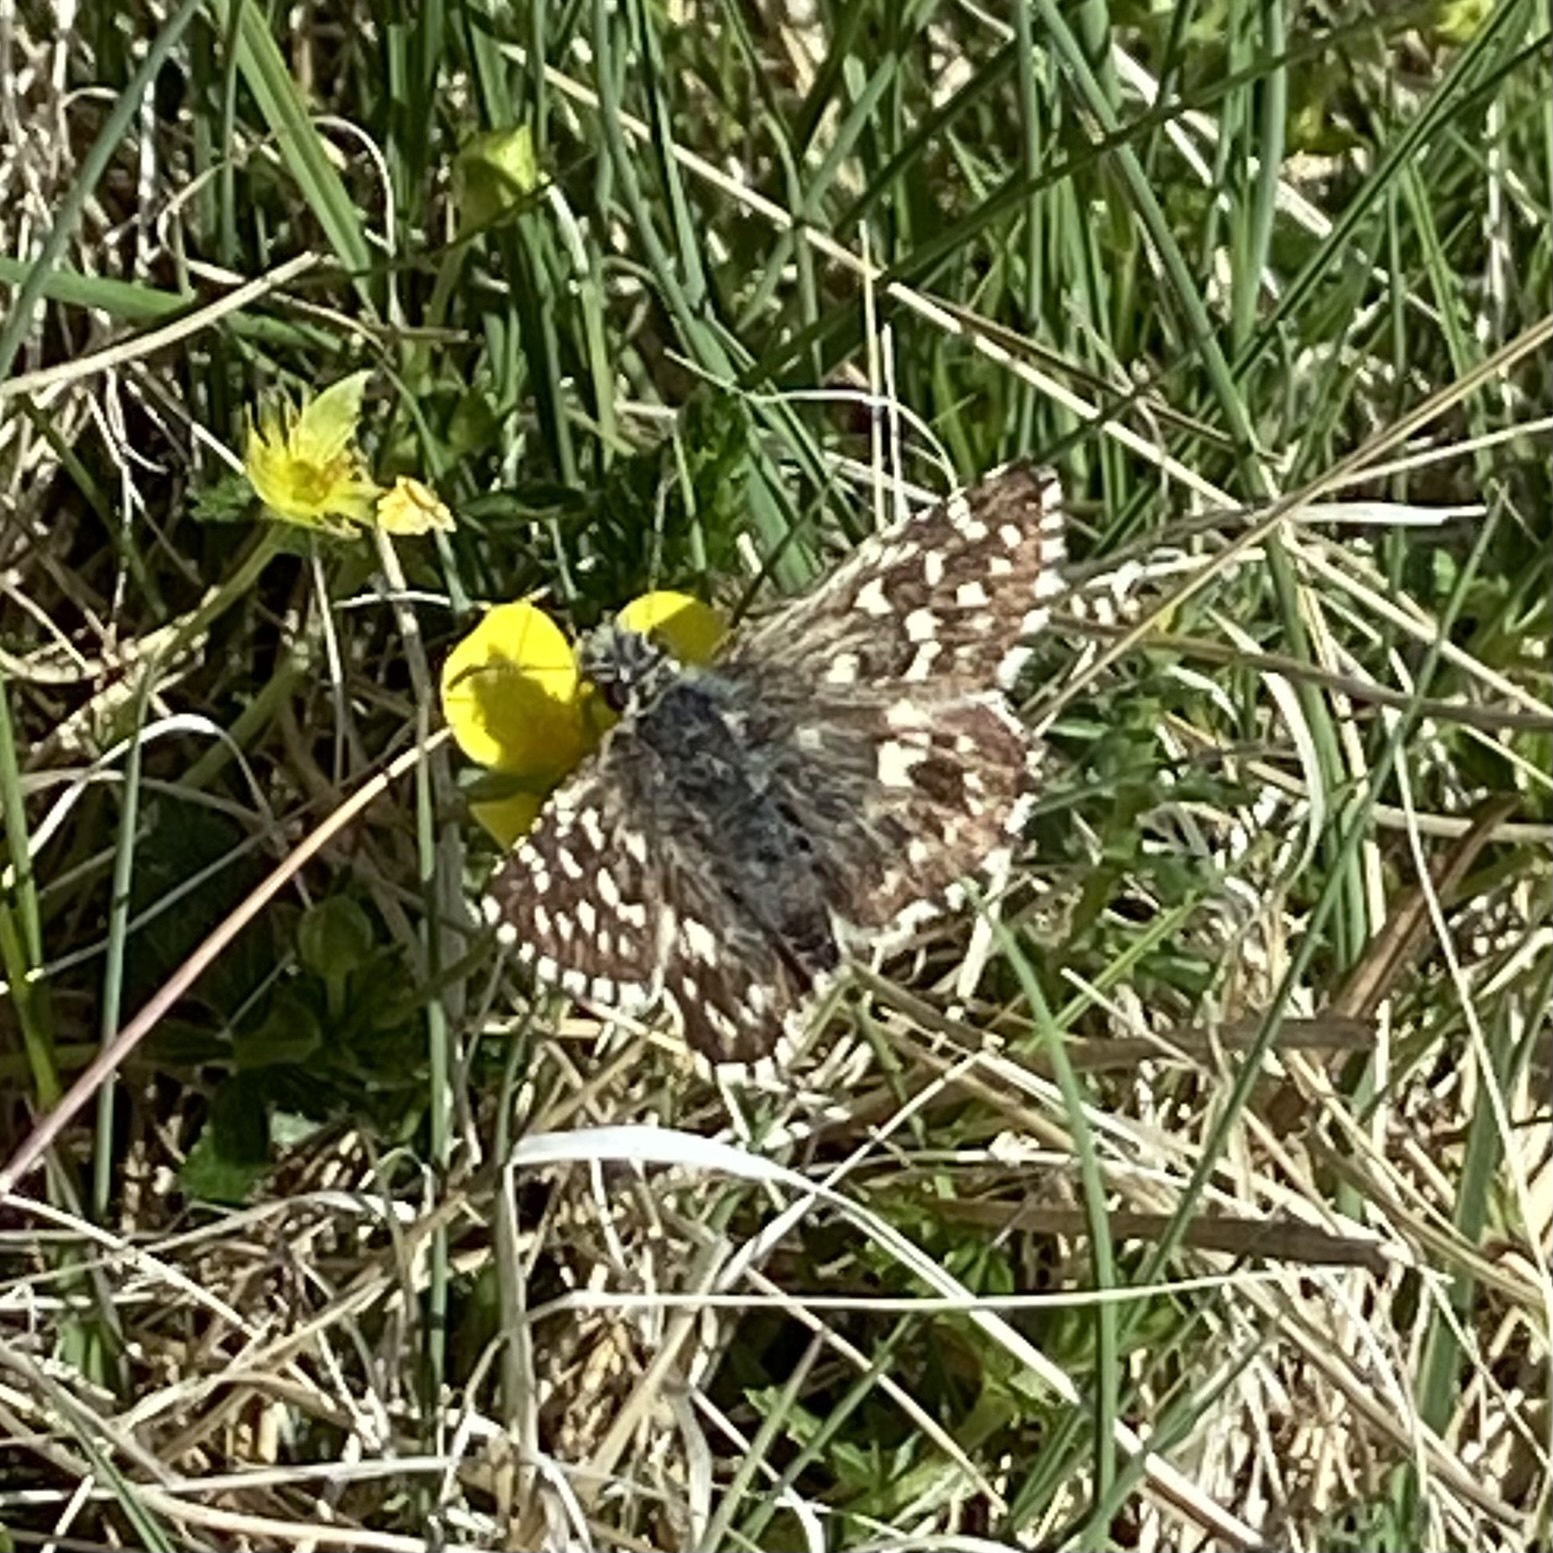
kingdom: Animalia
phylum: Arthropoda
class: Insecta
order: Lepidoptera
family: Hesperiidae
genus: Pyrgus
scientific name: Pyrgus malvae
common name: Grizzled skipper
